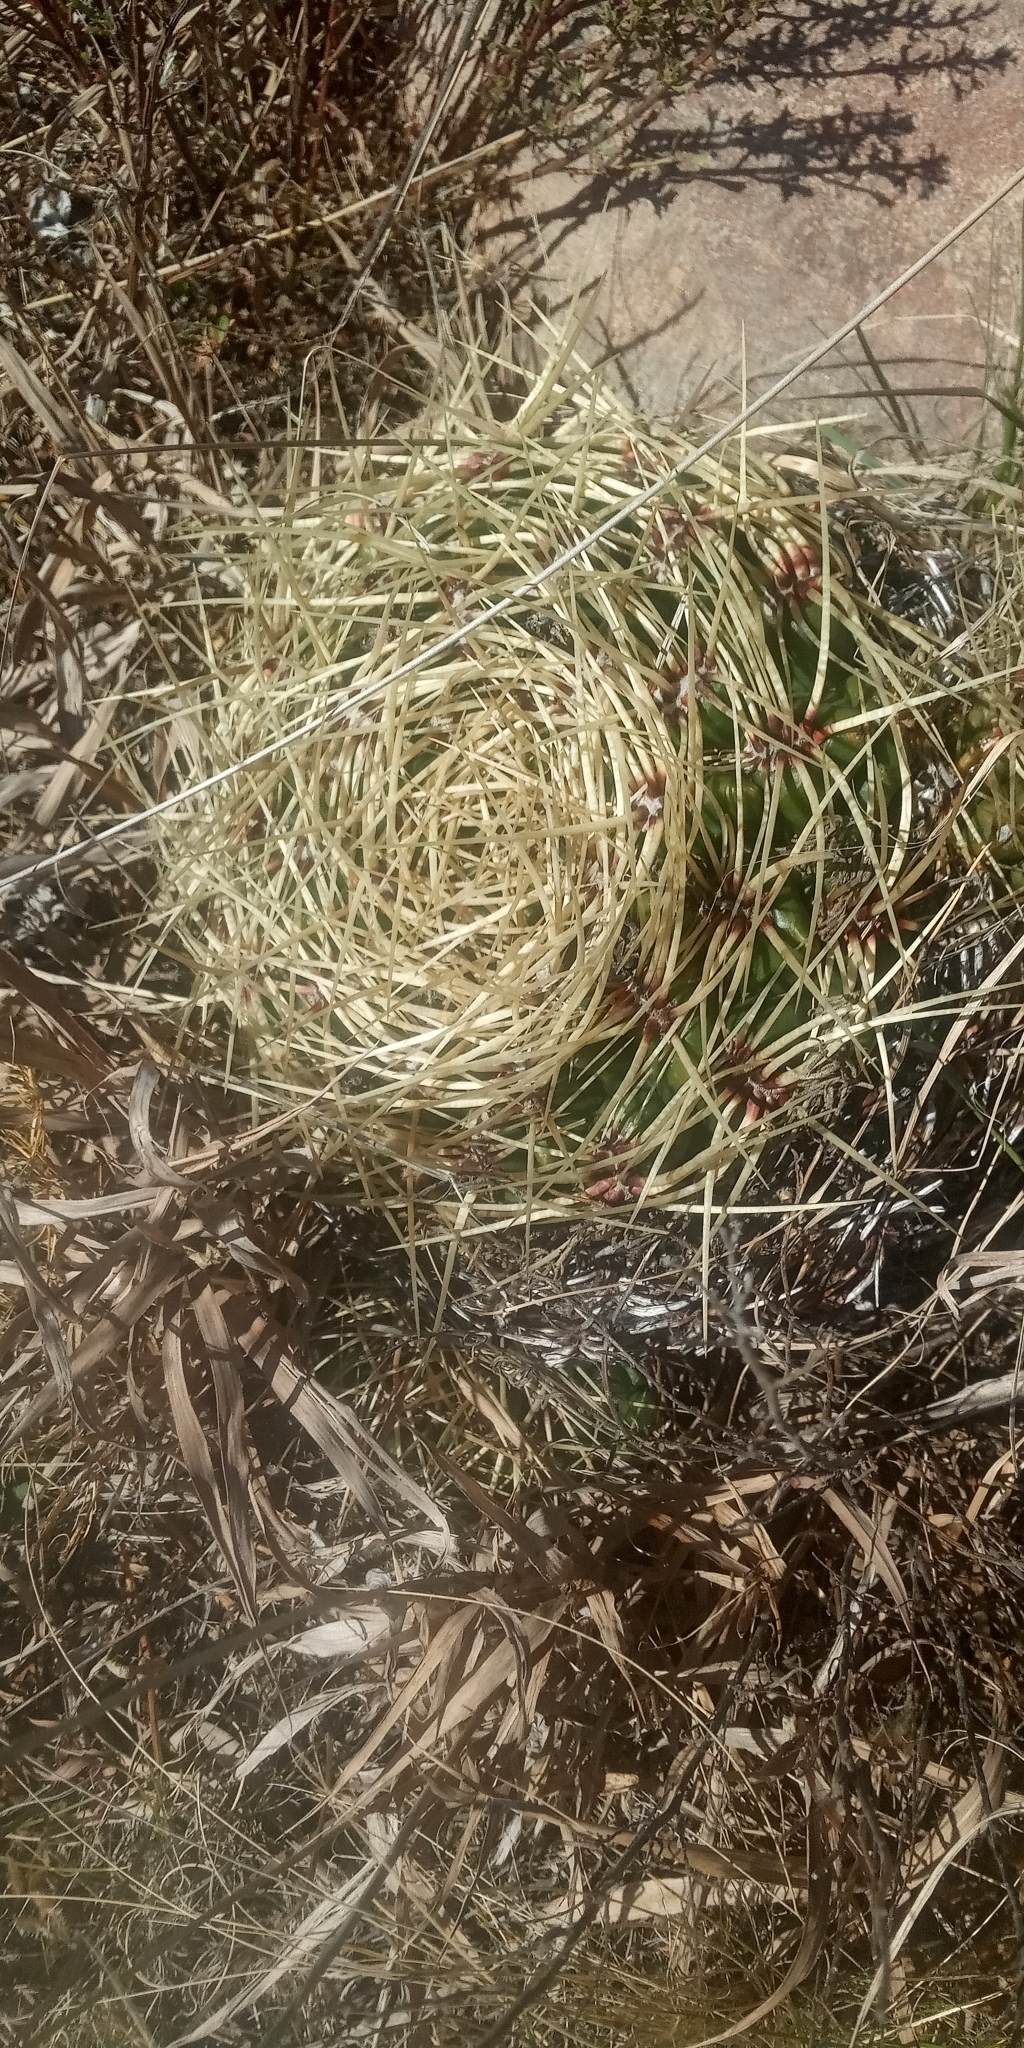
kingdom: Plantae
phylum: Tracheophyta
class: Magnoliopsida
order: Caryophyllales
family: Cactaceae
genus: Gymnocalycium
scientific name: Gymnocalycium monvillei
